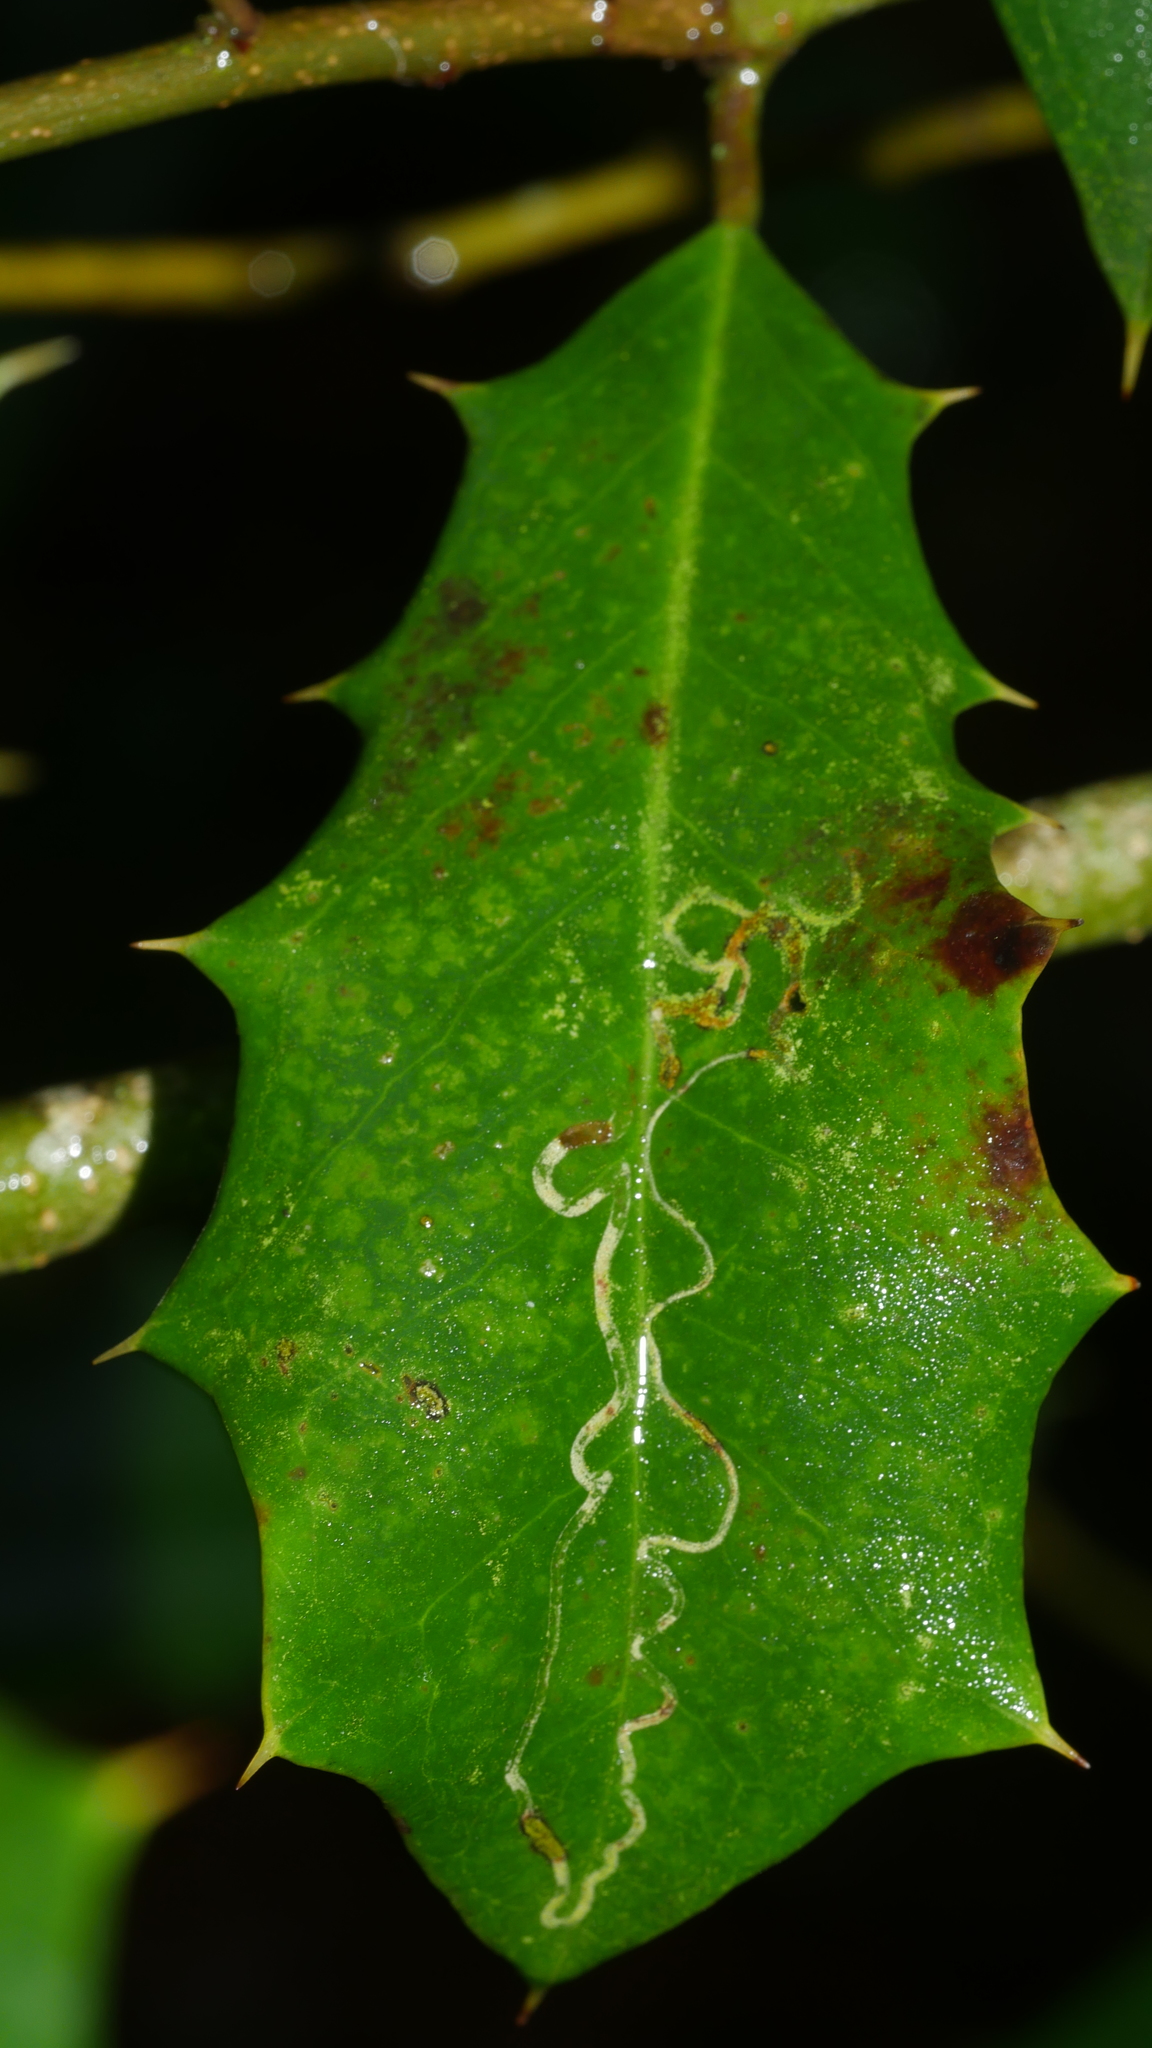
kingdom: Animalia
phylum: Arthropoda
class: Insecta
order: Diptera
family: Agromyzidae
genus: Phytomyza
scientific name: Phytomyza opacae
